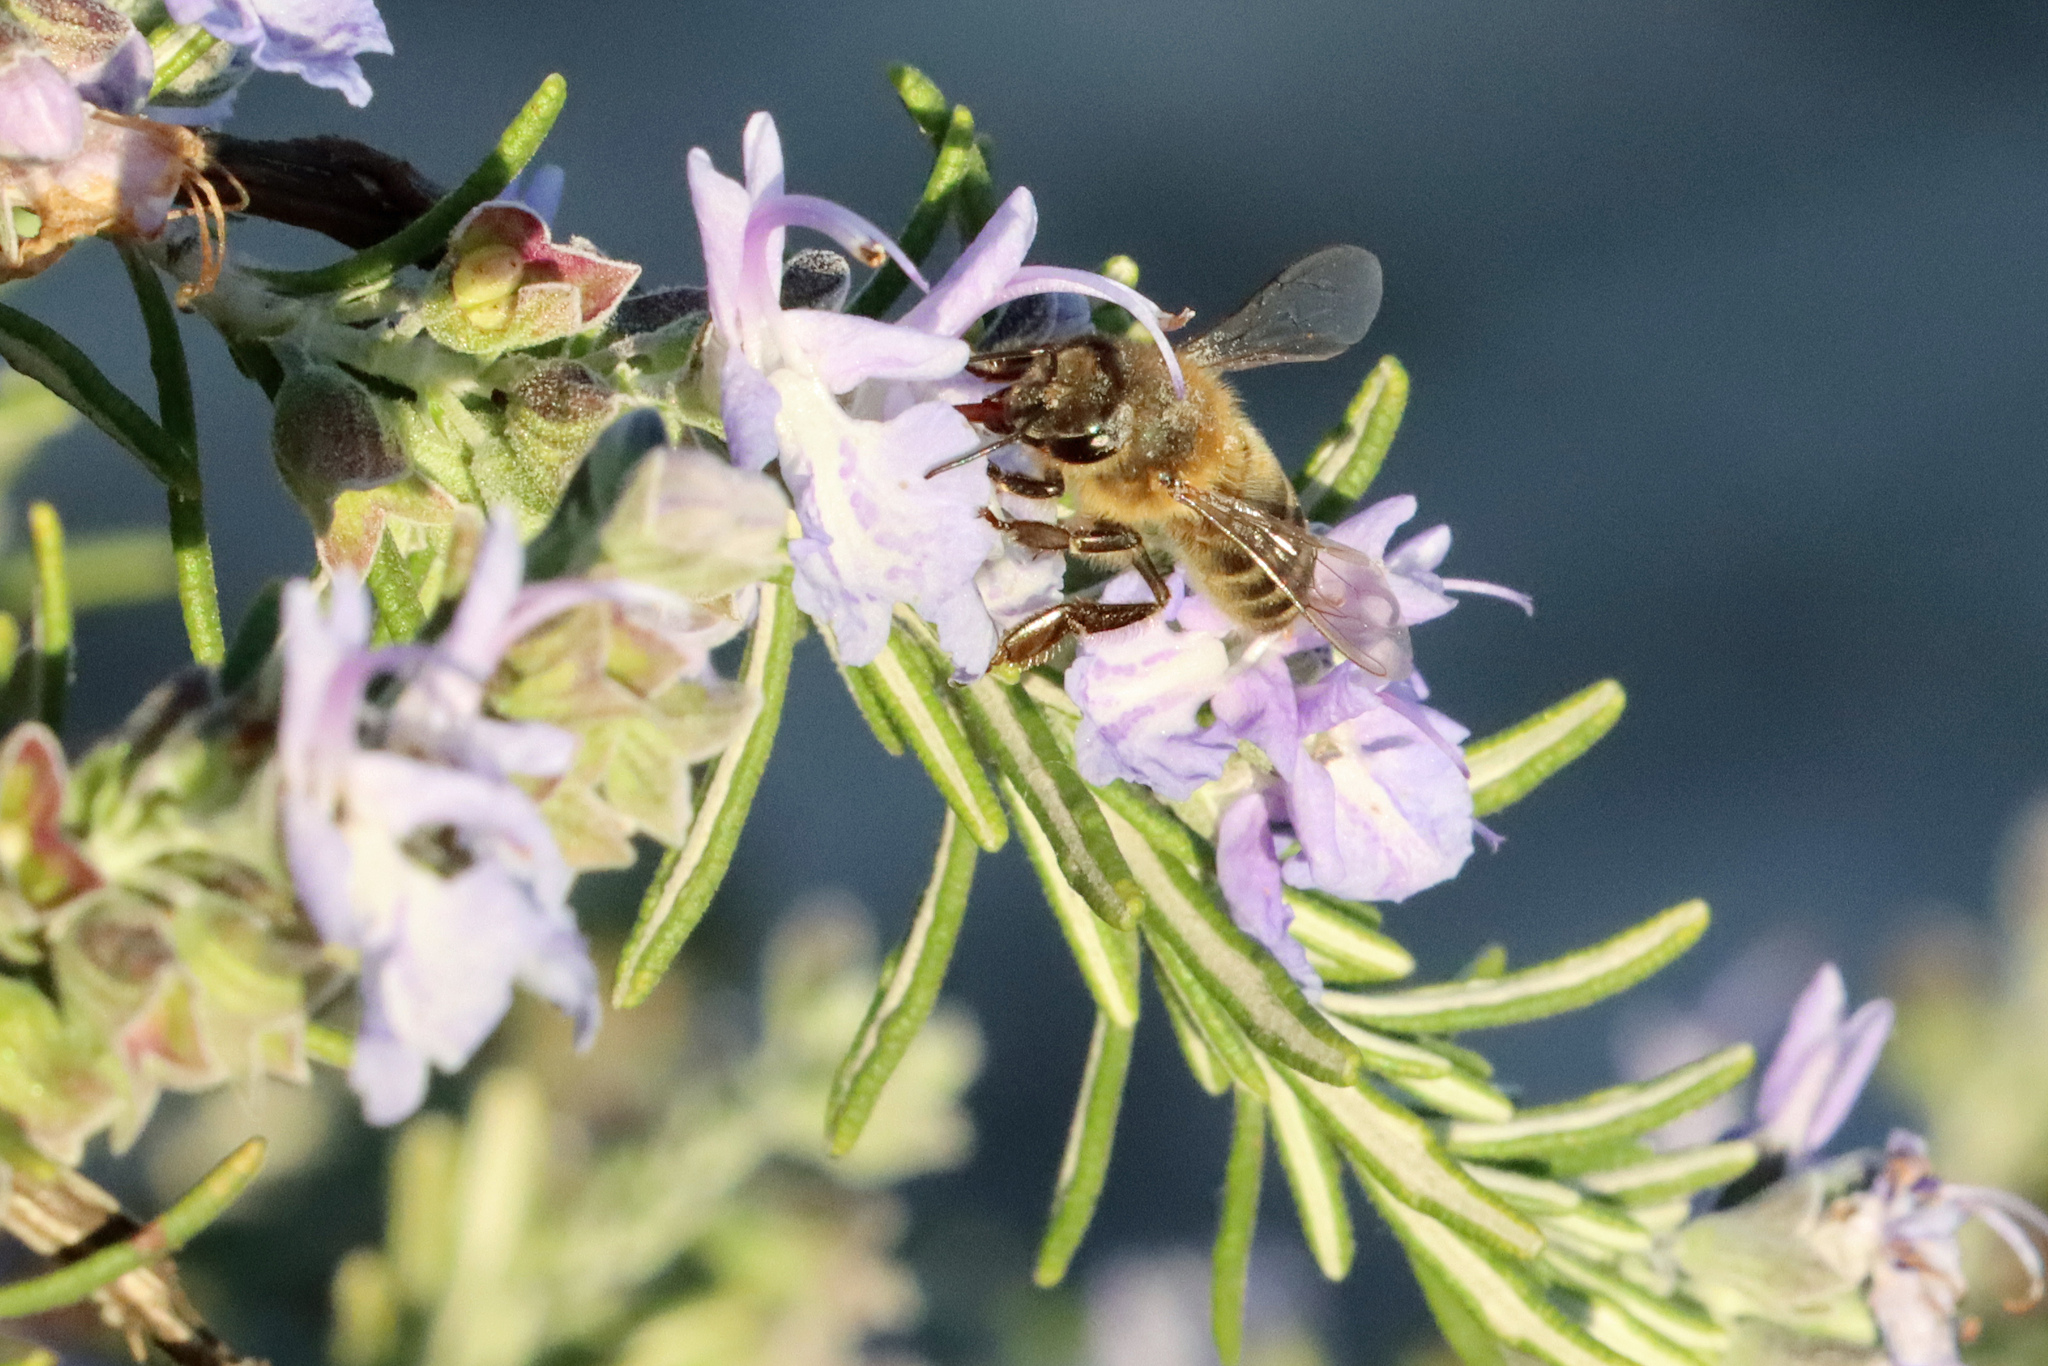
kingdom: Animalia
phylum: Arthropoda
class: Insecta
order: Hymenoptera
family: Apidae
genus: Apis
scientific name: Apis mellifera
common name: Honey bee
